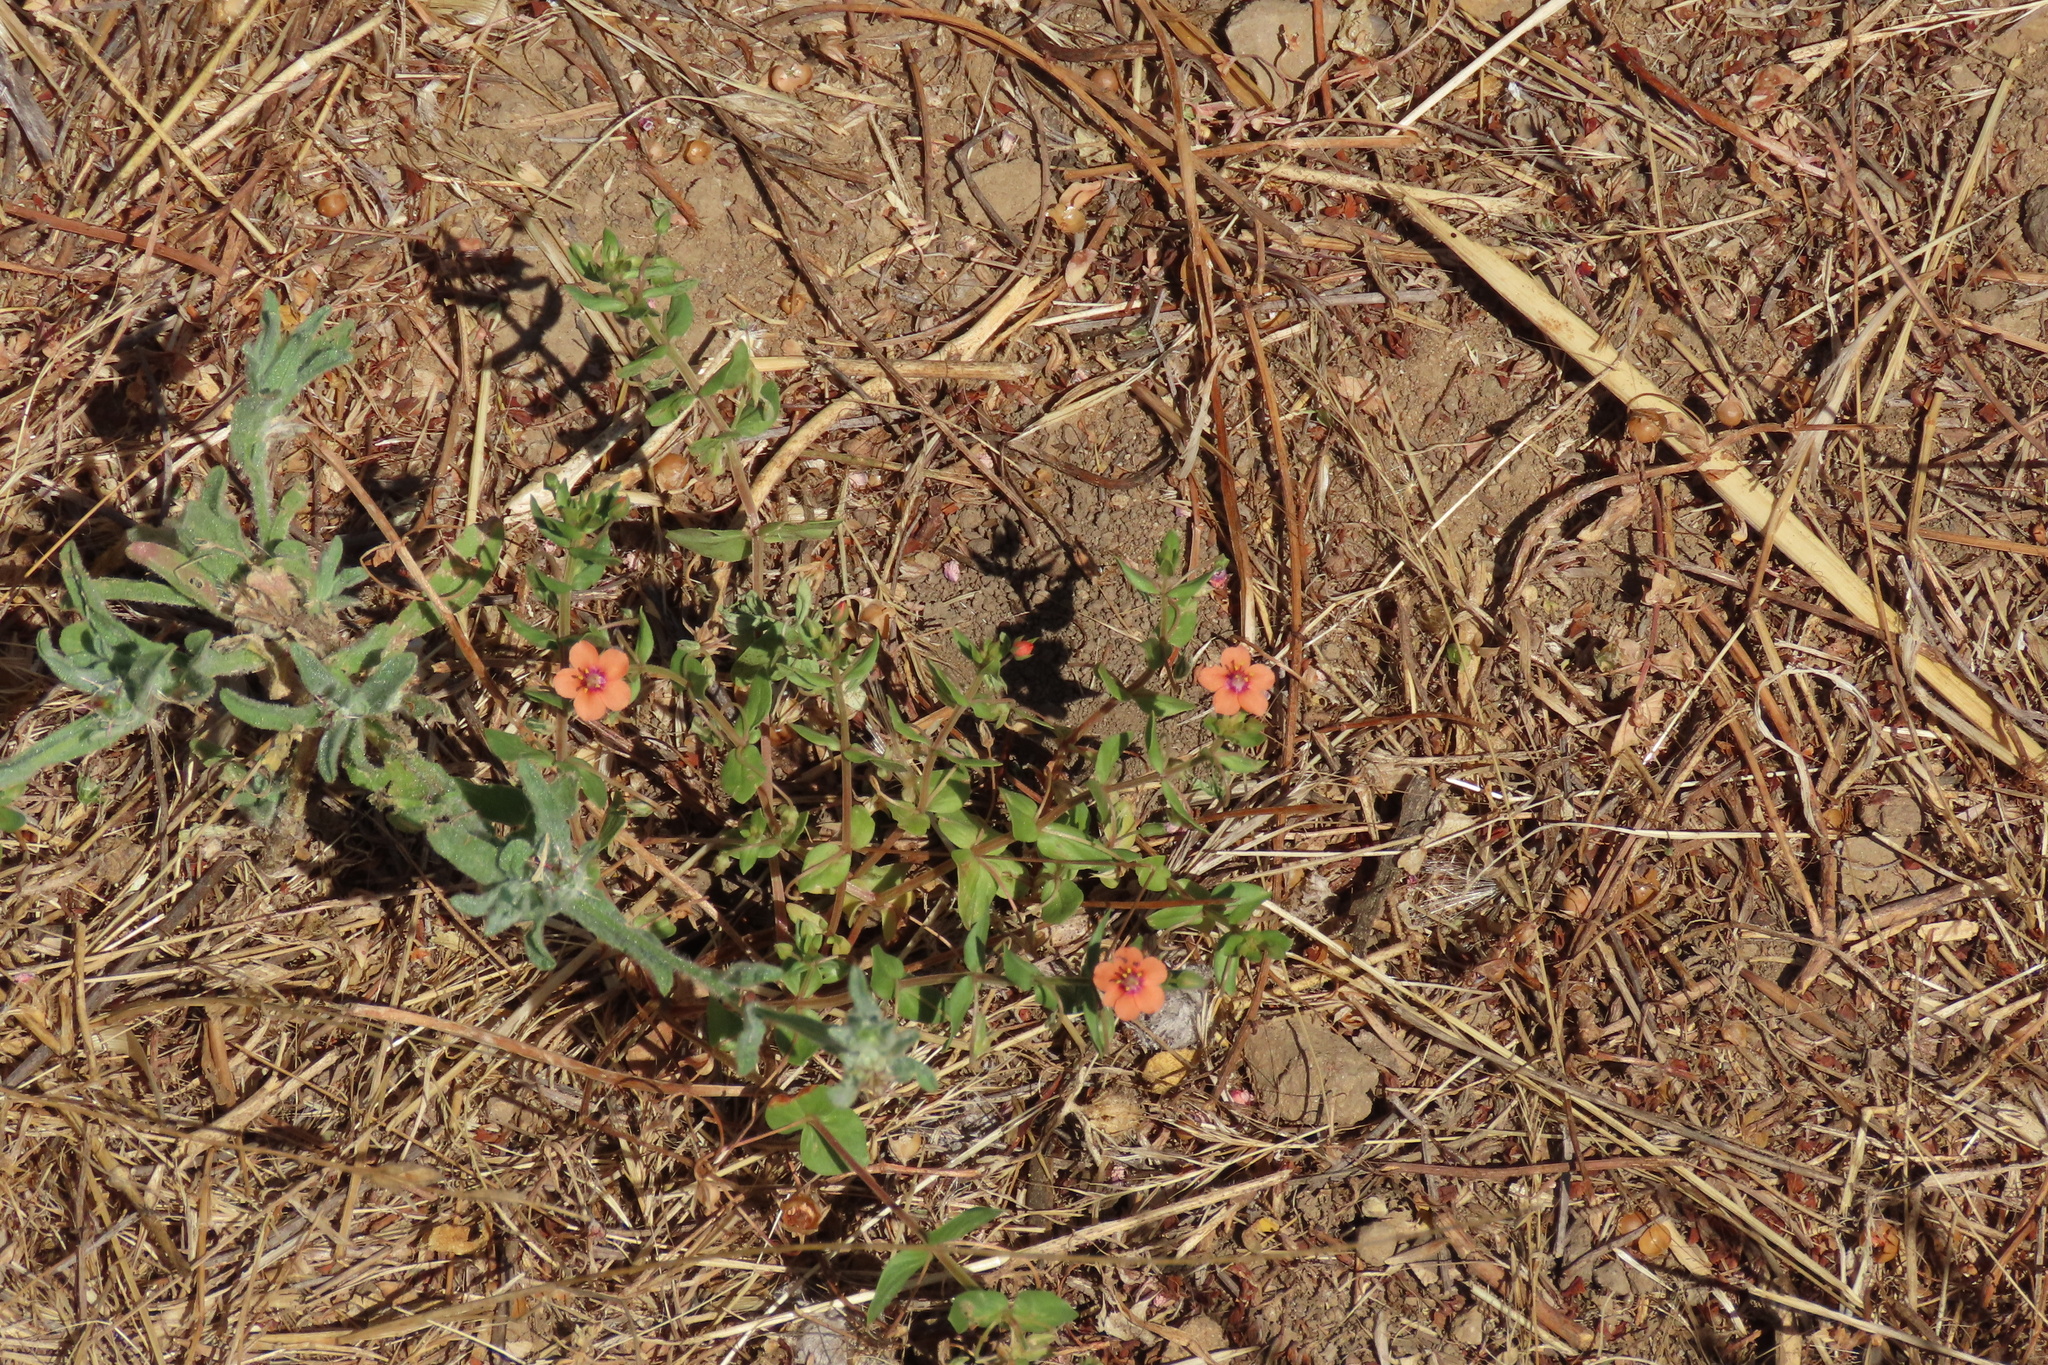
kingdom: Plantae
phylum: Tracheophyta
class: Magnoliopsida
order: Ericales
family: Primulaceae
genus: Lysimachia
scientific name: Lysimachia arvensis
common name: Scarlet pimpernel
